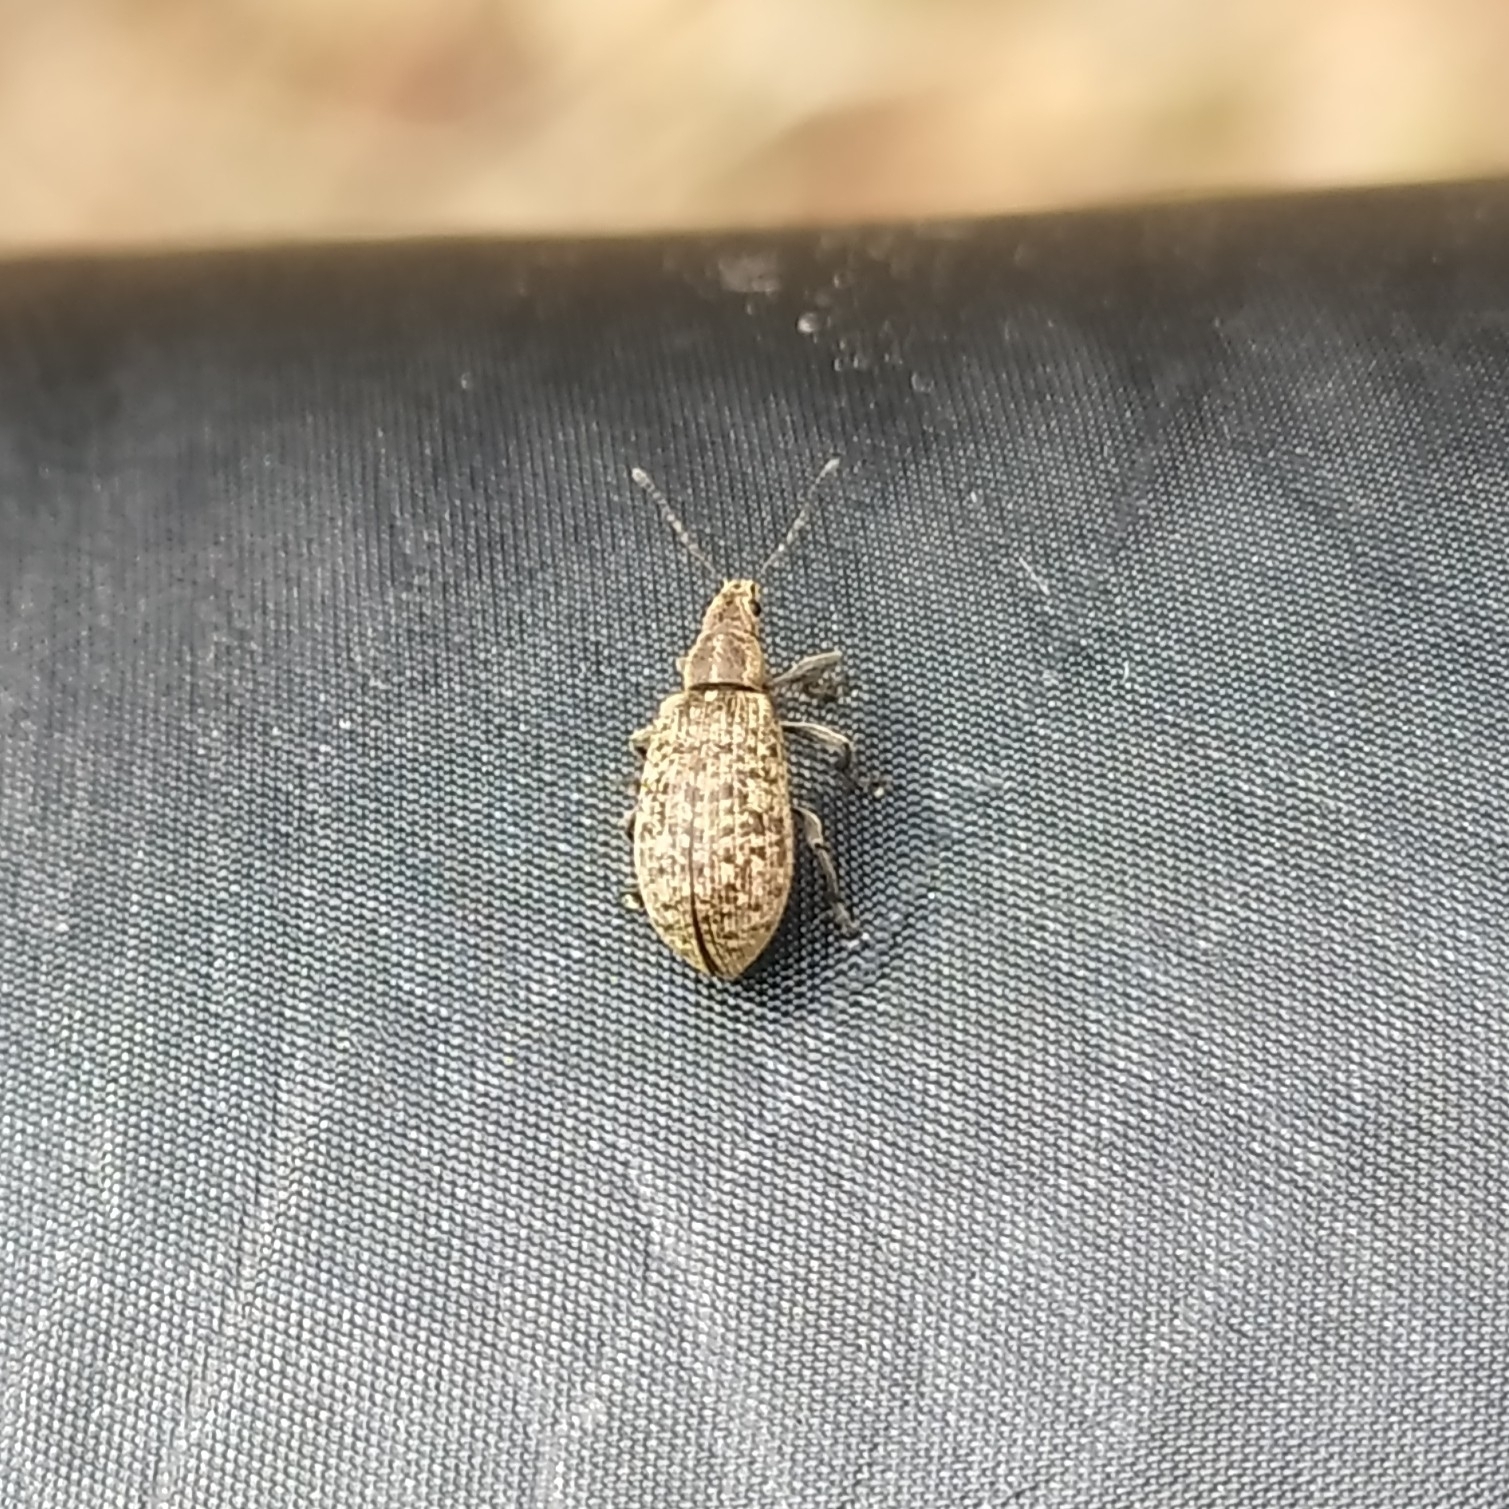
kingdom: Animalia
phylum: Arthropoda
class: Insecta
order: Coleoptera
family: Curculionidae
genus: Polydrusus
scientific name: Polydrusus pilosus
